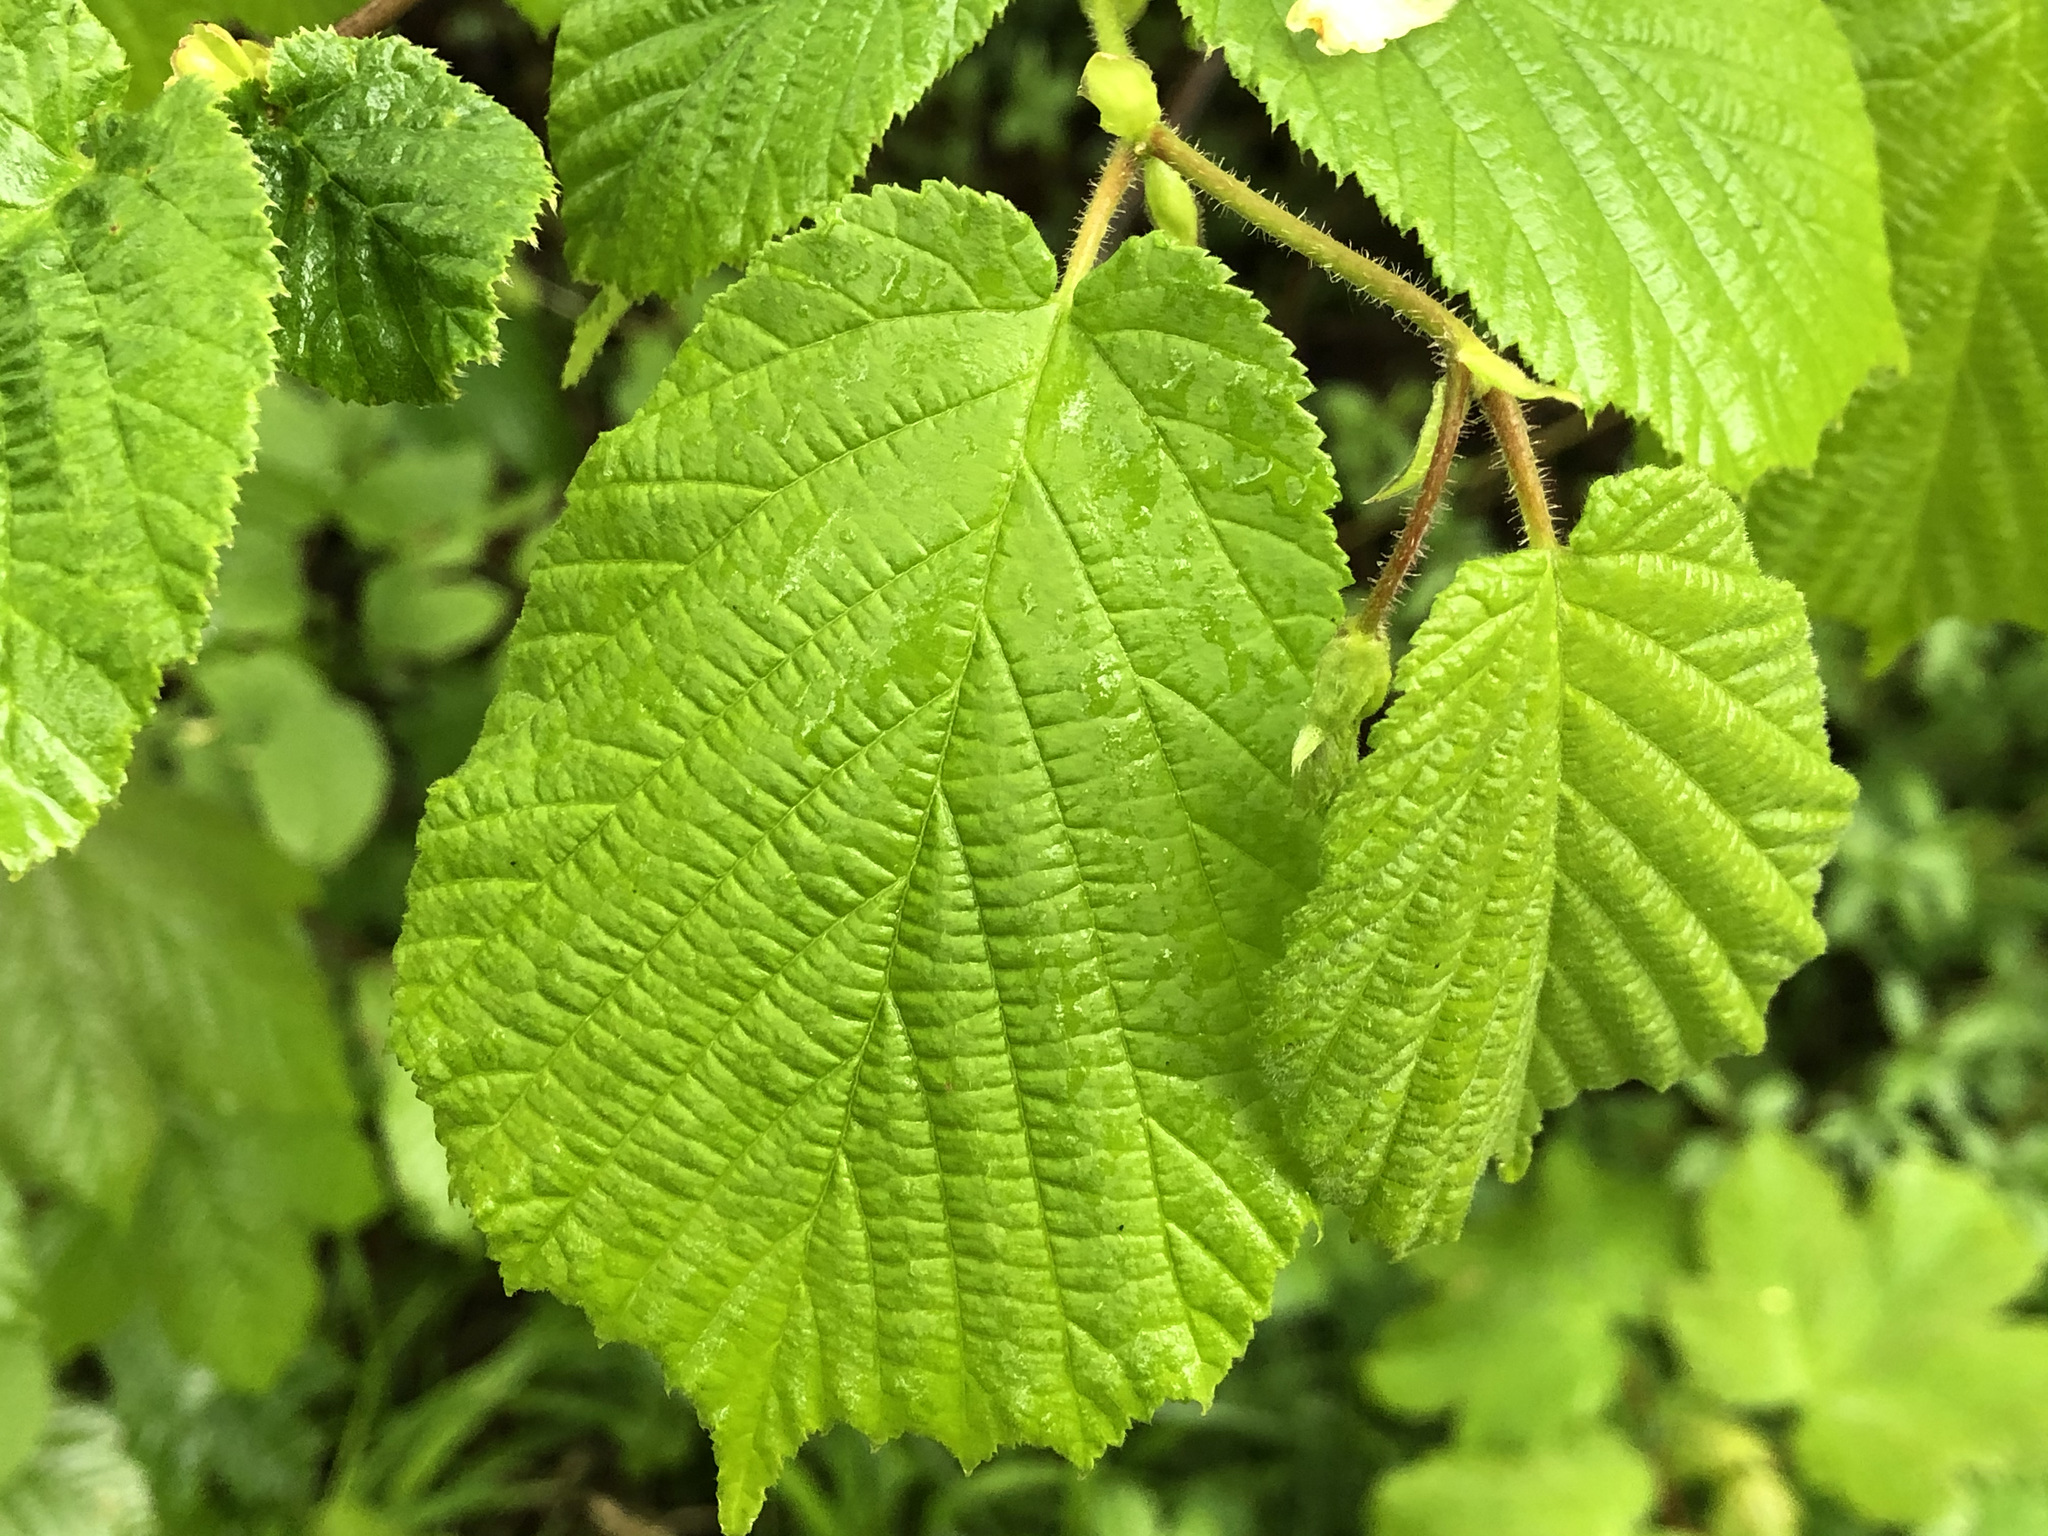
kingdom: Plantae
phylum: Tracheophyta
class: Magnoliopsida
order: Fagales
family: Betulaceae
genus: Corylus
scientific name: Corylus avellana
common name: European hazel
